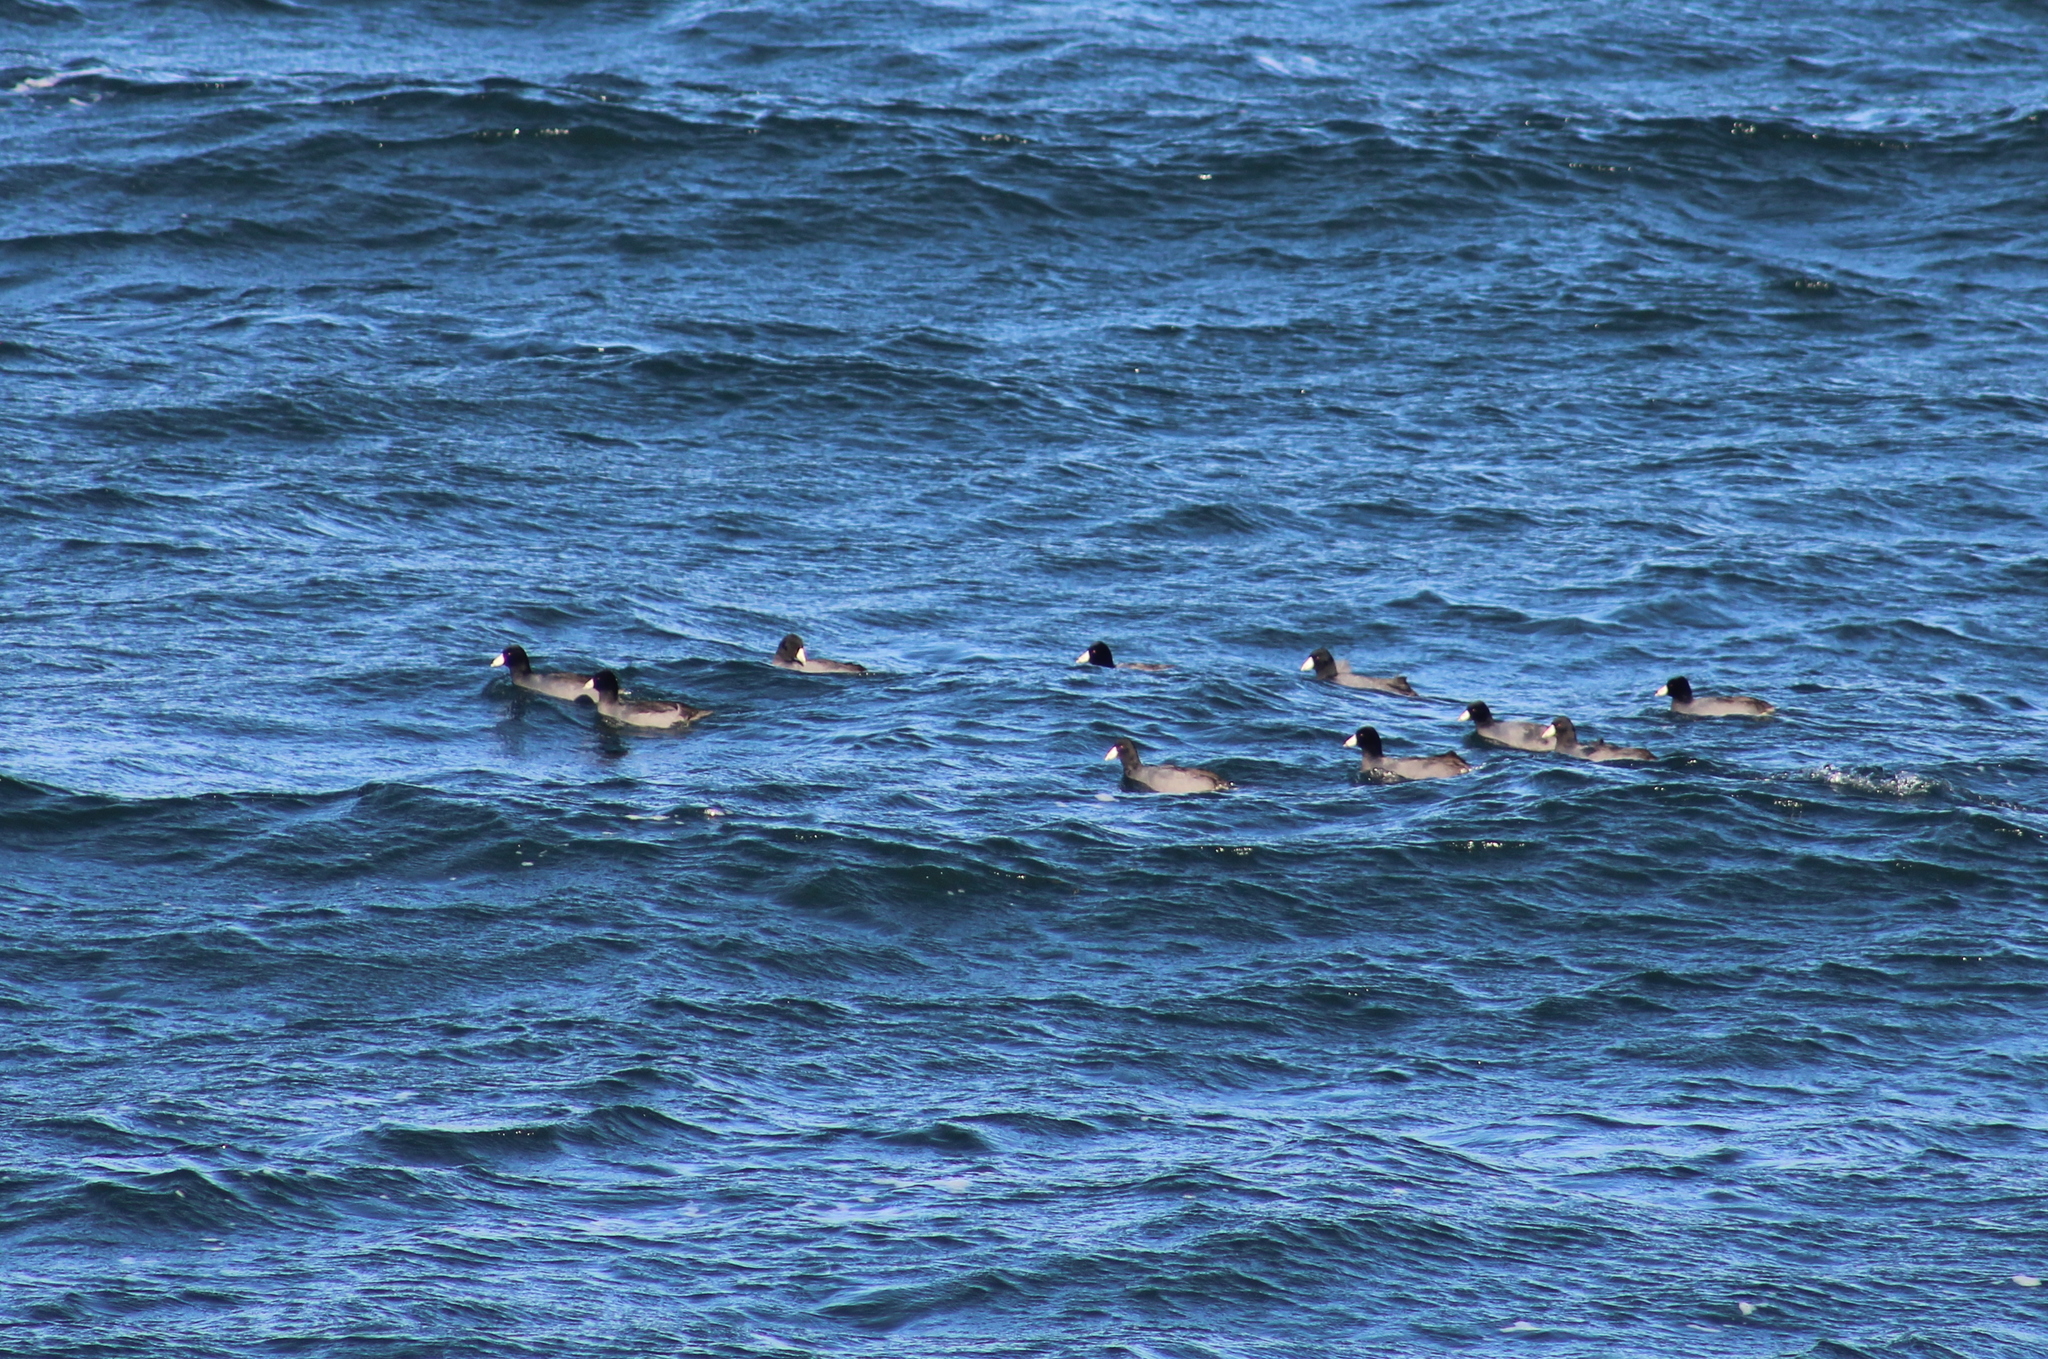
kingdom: Animalia
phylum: Chordata
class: Aves
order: Gruiformes
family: Rallidae
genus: Fulica
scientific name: Fulica americana
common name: American coot
